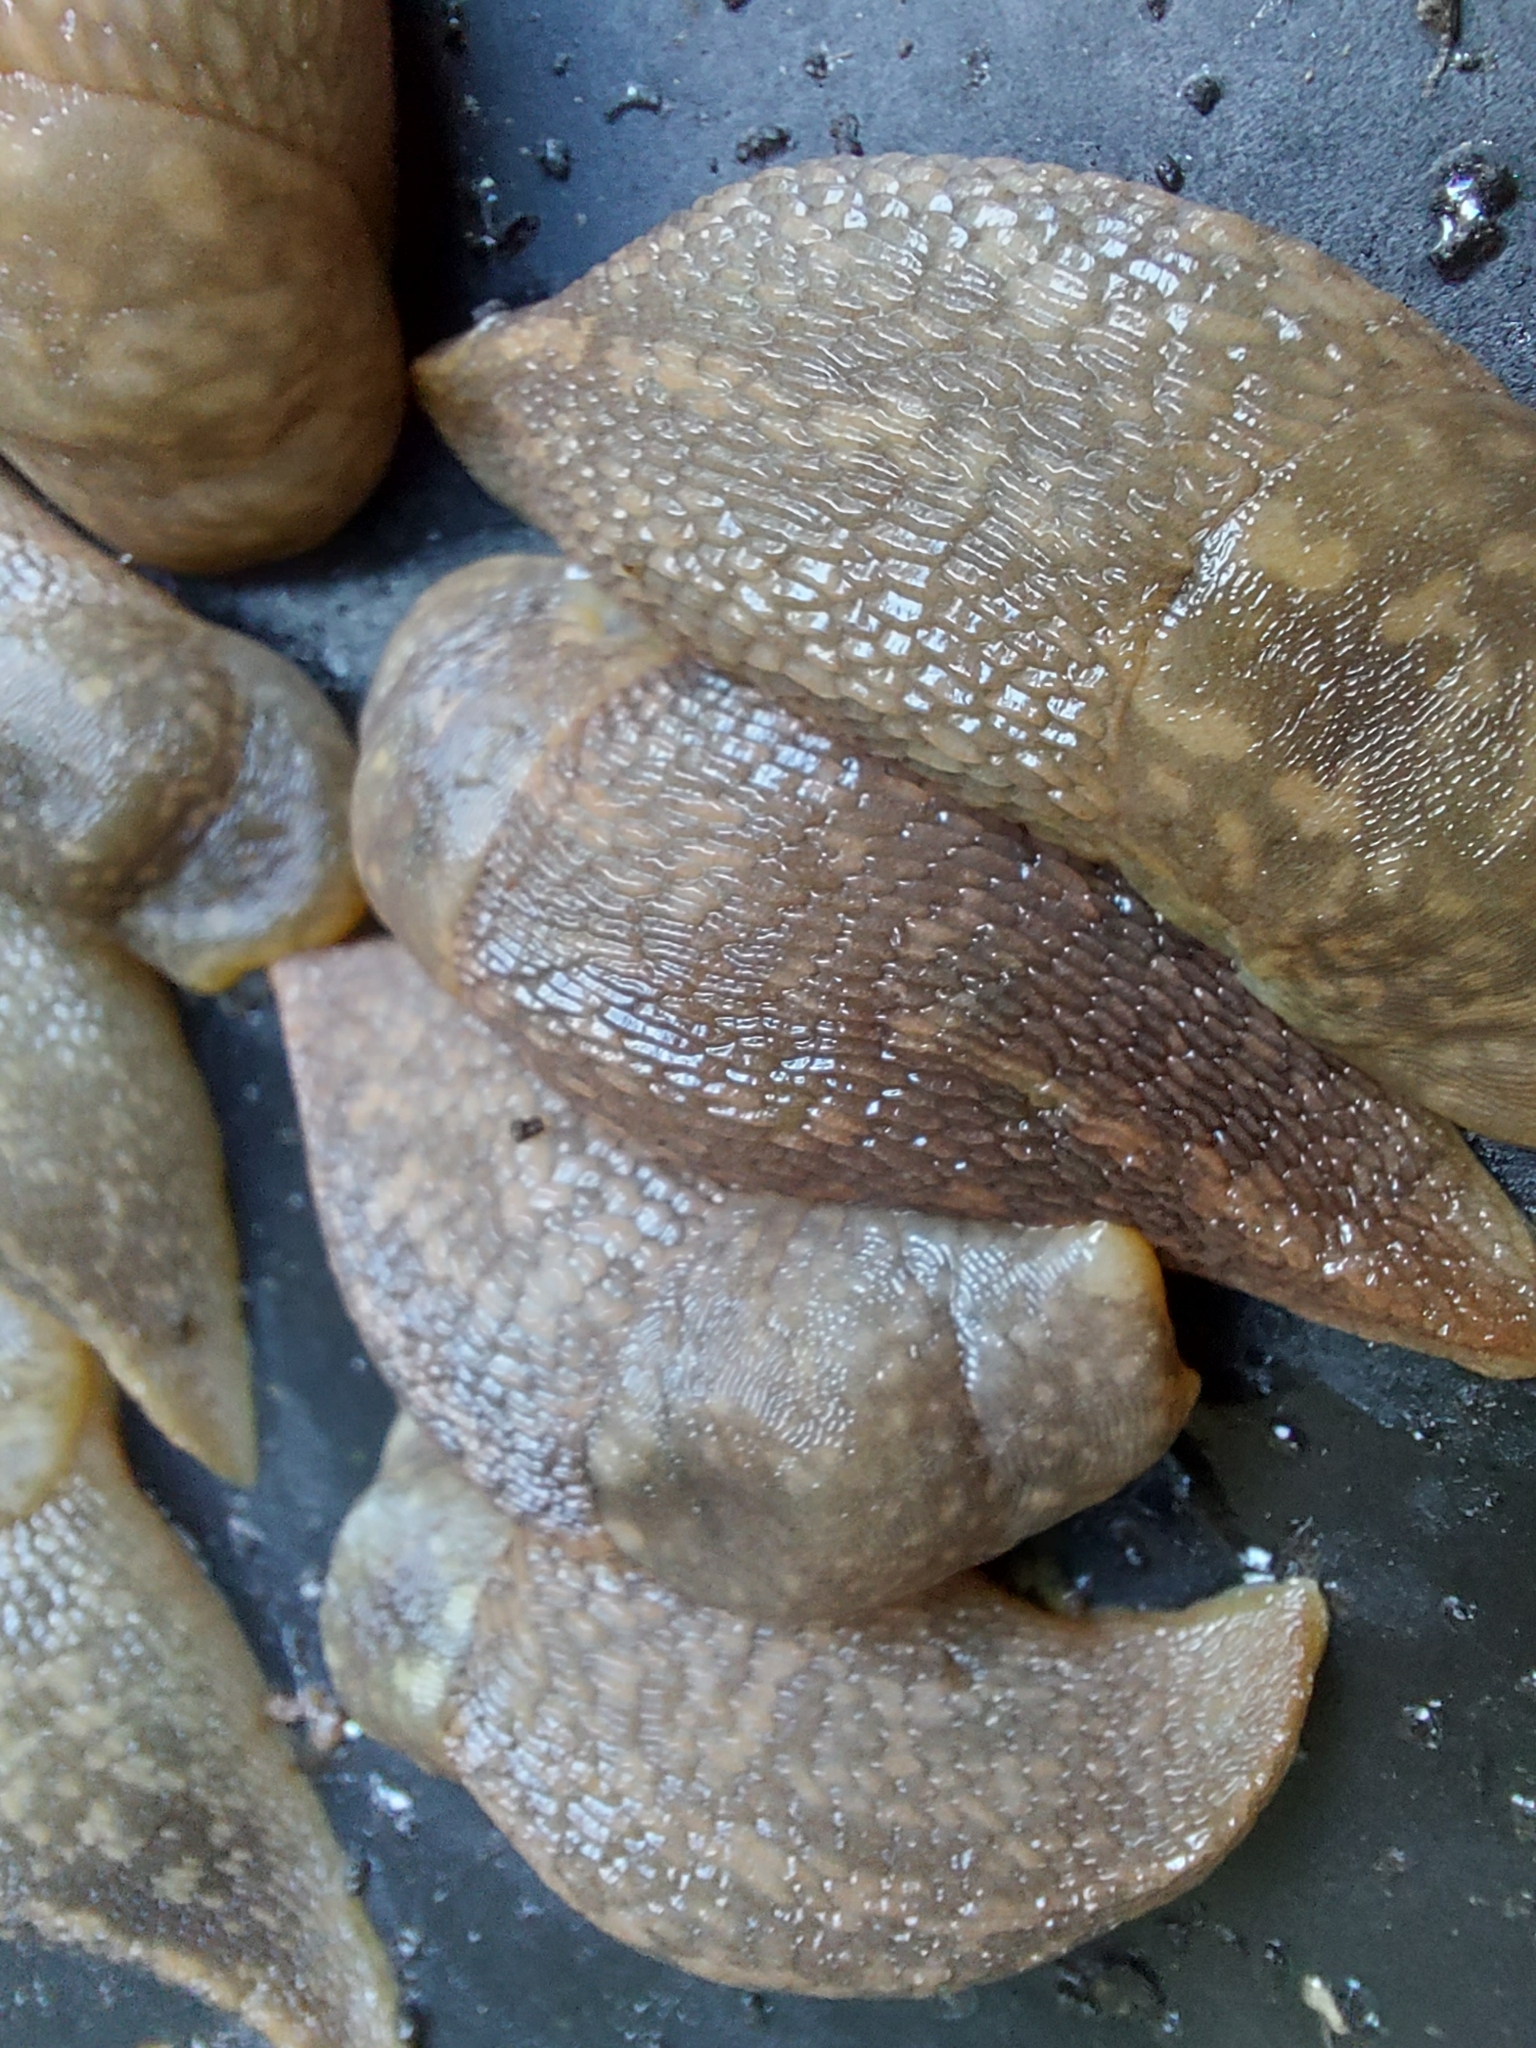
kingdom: Animalia
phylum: Mollusca
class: Gastropoda
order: Stylommatophora
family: Limacidae
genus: Limacus
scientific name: Limacus flavus
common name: Yellow gardenslug
